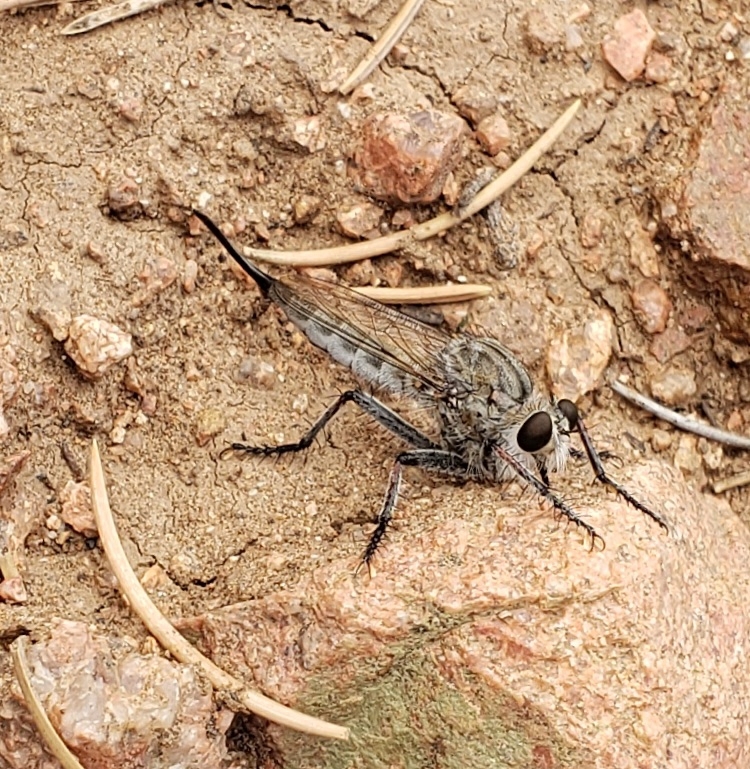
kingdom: Animalia
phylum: Arthropoda
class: Insecta
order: Diptera
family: Asilidae
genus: Efferia
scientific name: Efferia
